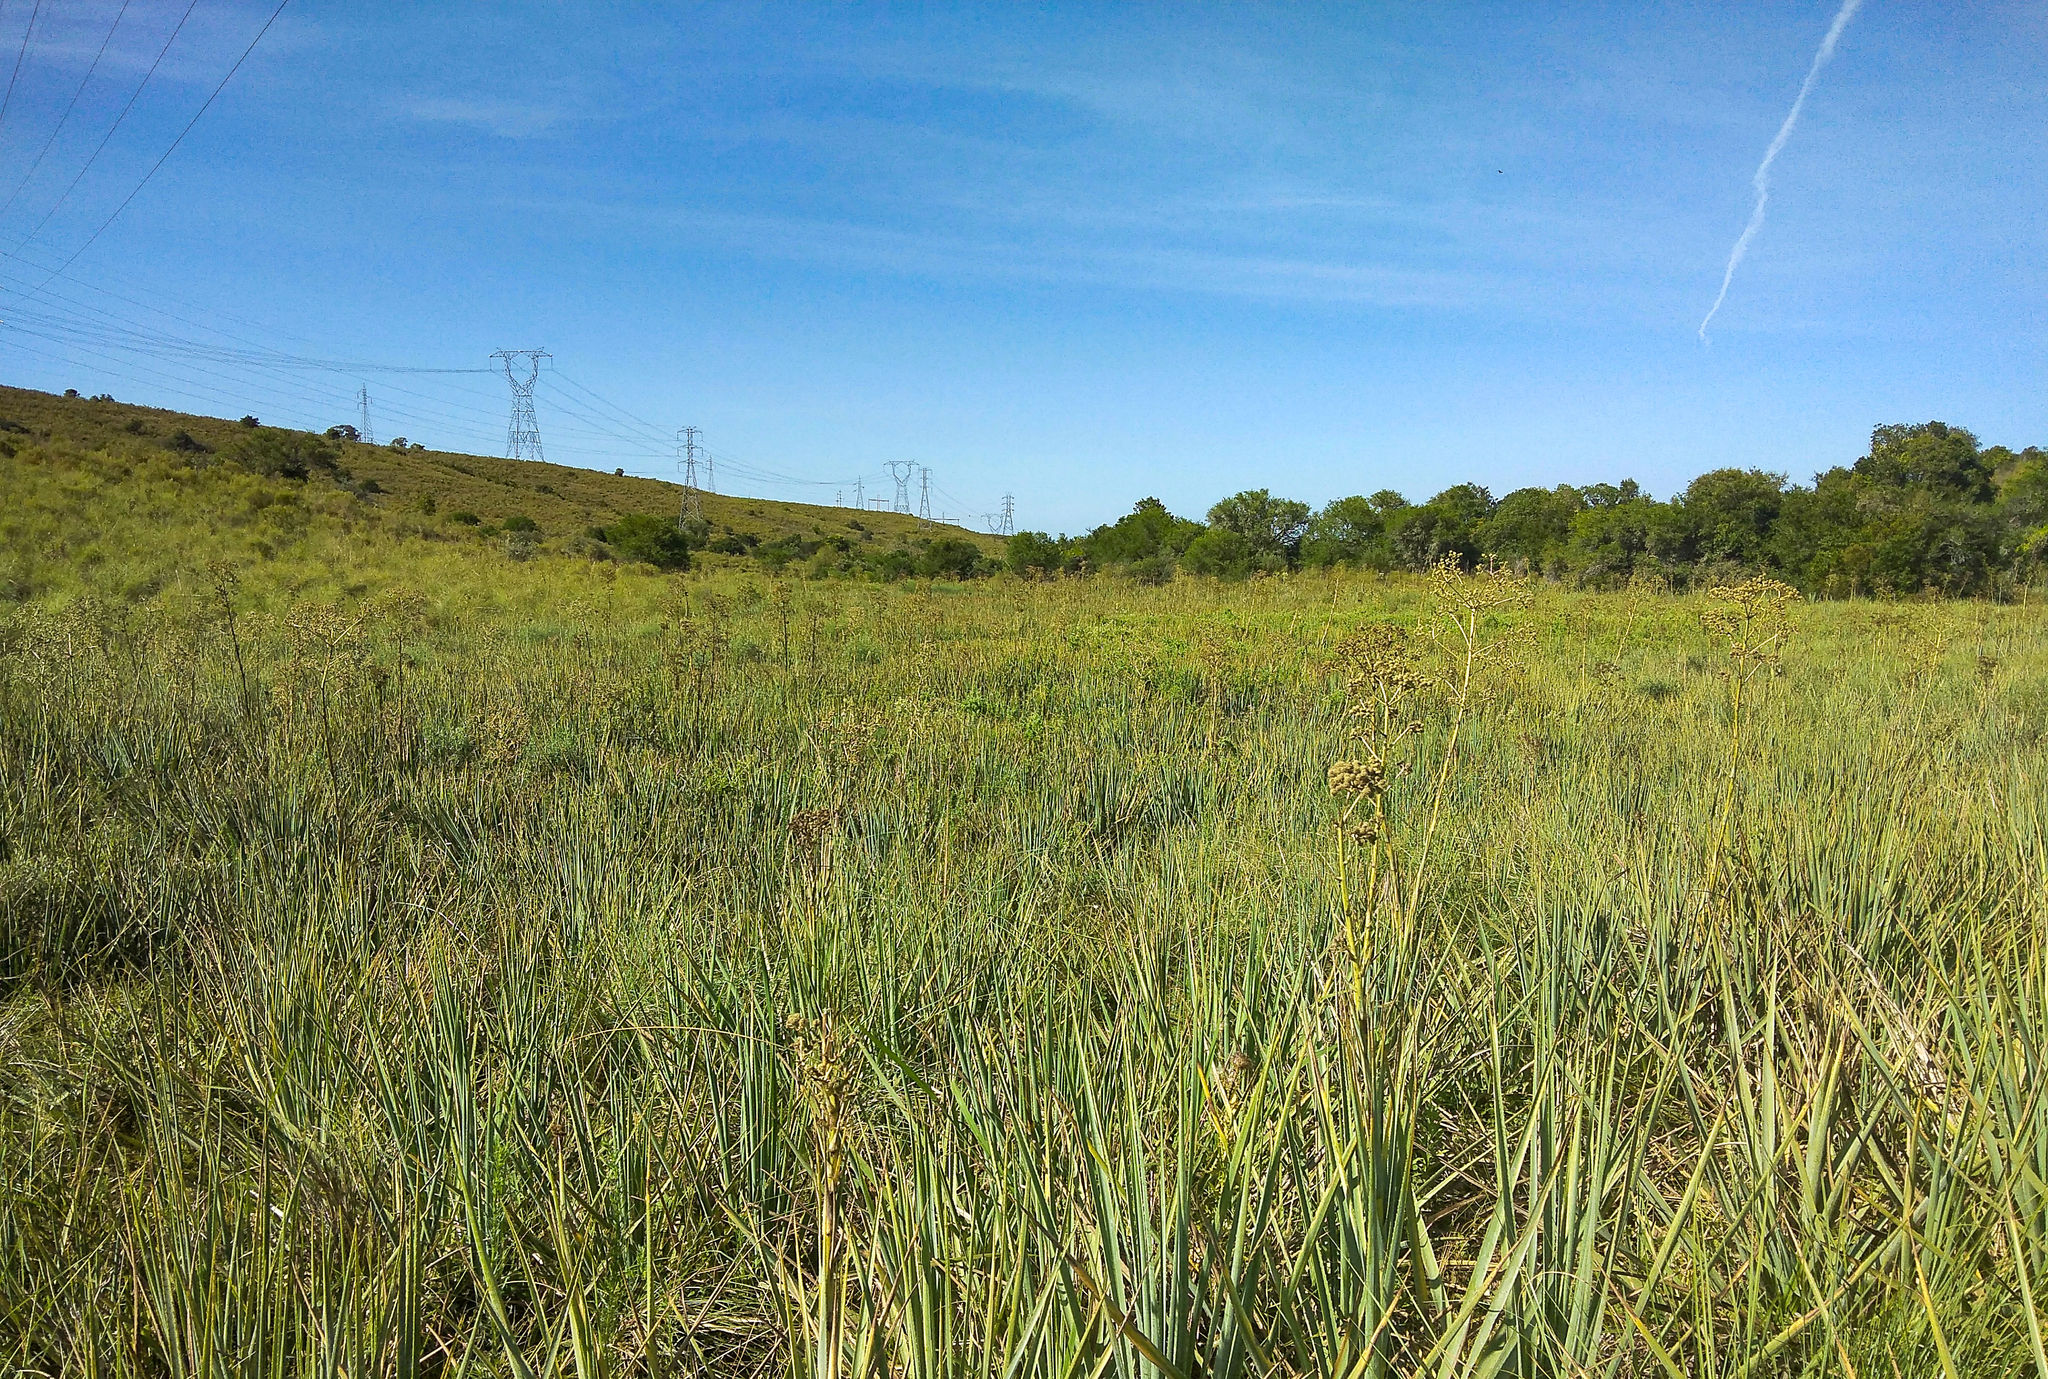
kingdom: Plantae
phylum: Tracheophyta
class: Magnoliopsida
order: Apiales
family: Apiaceae
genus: Eryngium
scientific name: Eryngium pandanifolium
